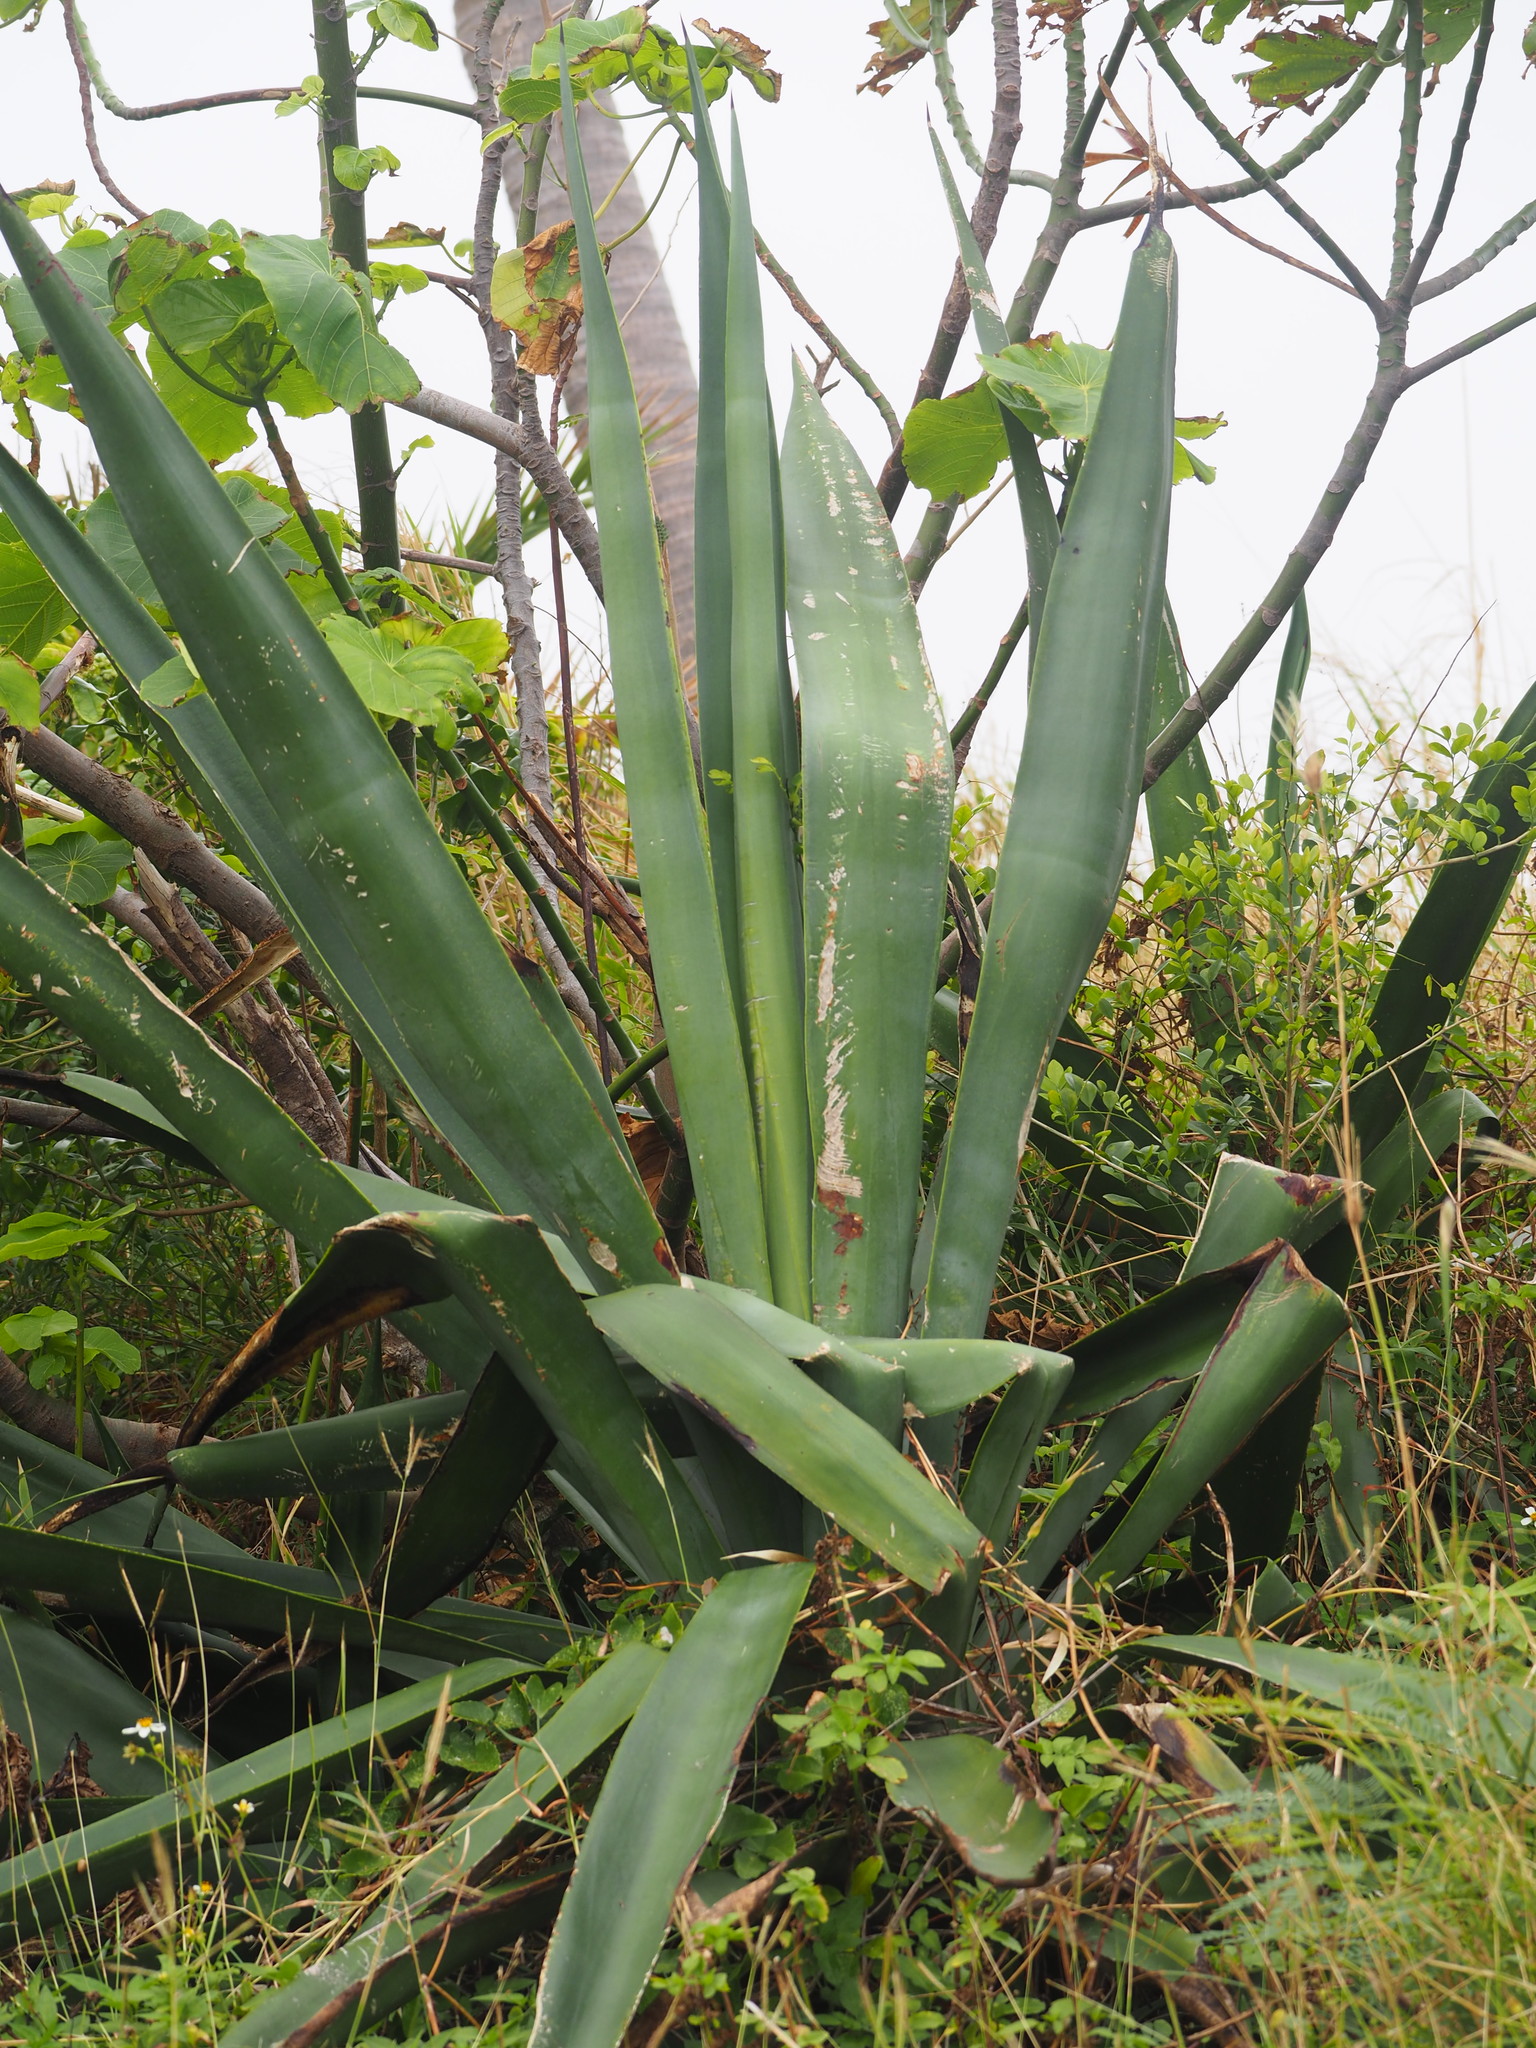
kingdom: Plantae
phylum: Tracheophyta
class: Liliopsida
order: Asparagales
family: Asparagaceae
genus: Agave
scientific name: Agave sisalana
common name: Sisal hemp
